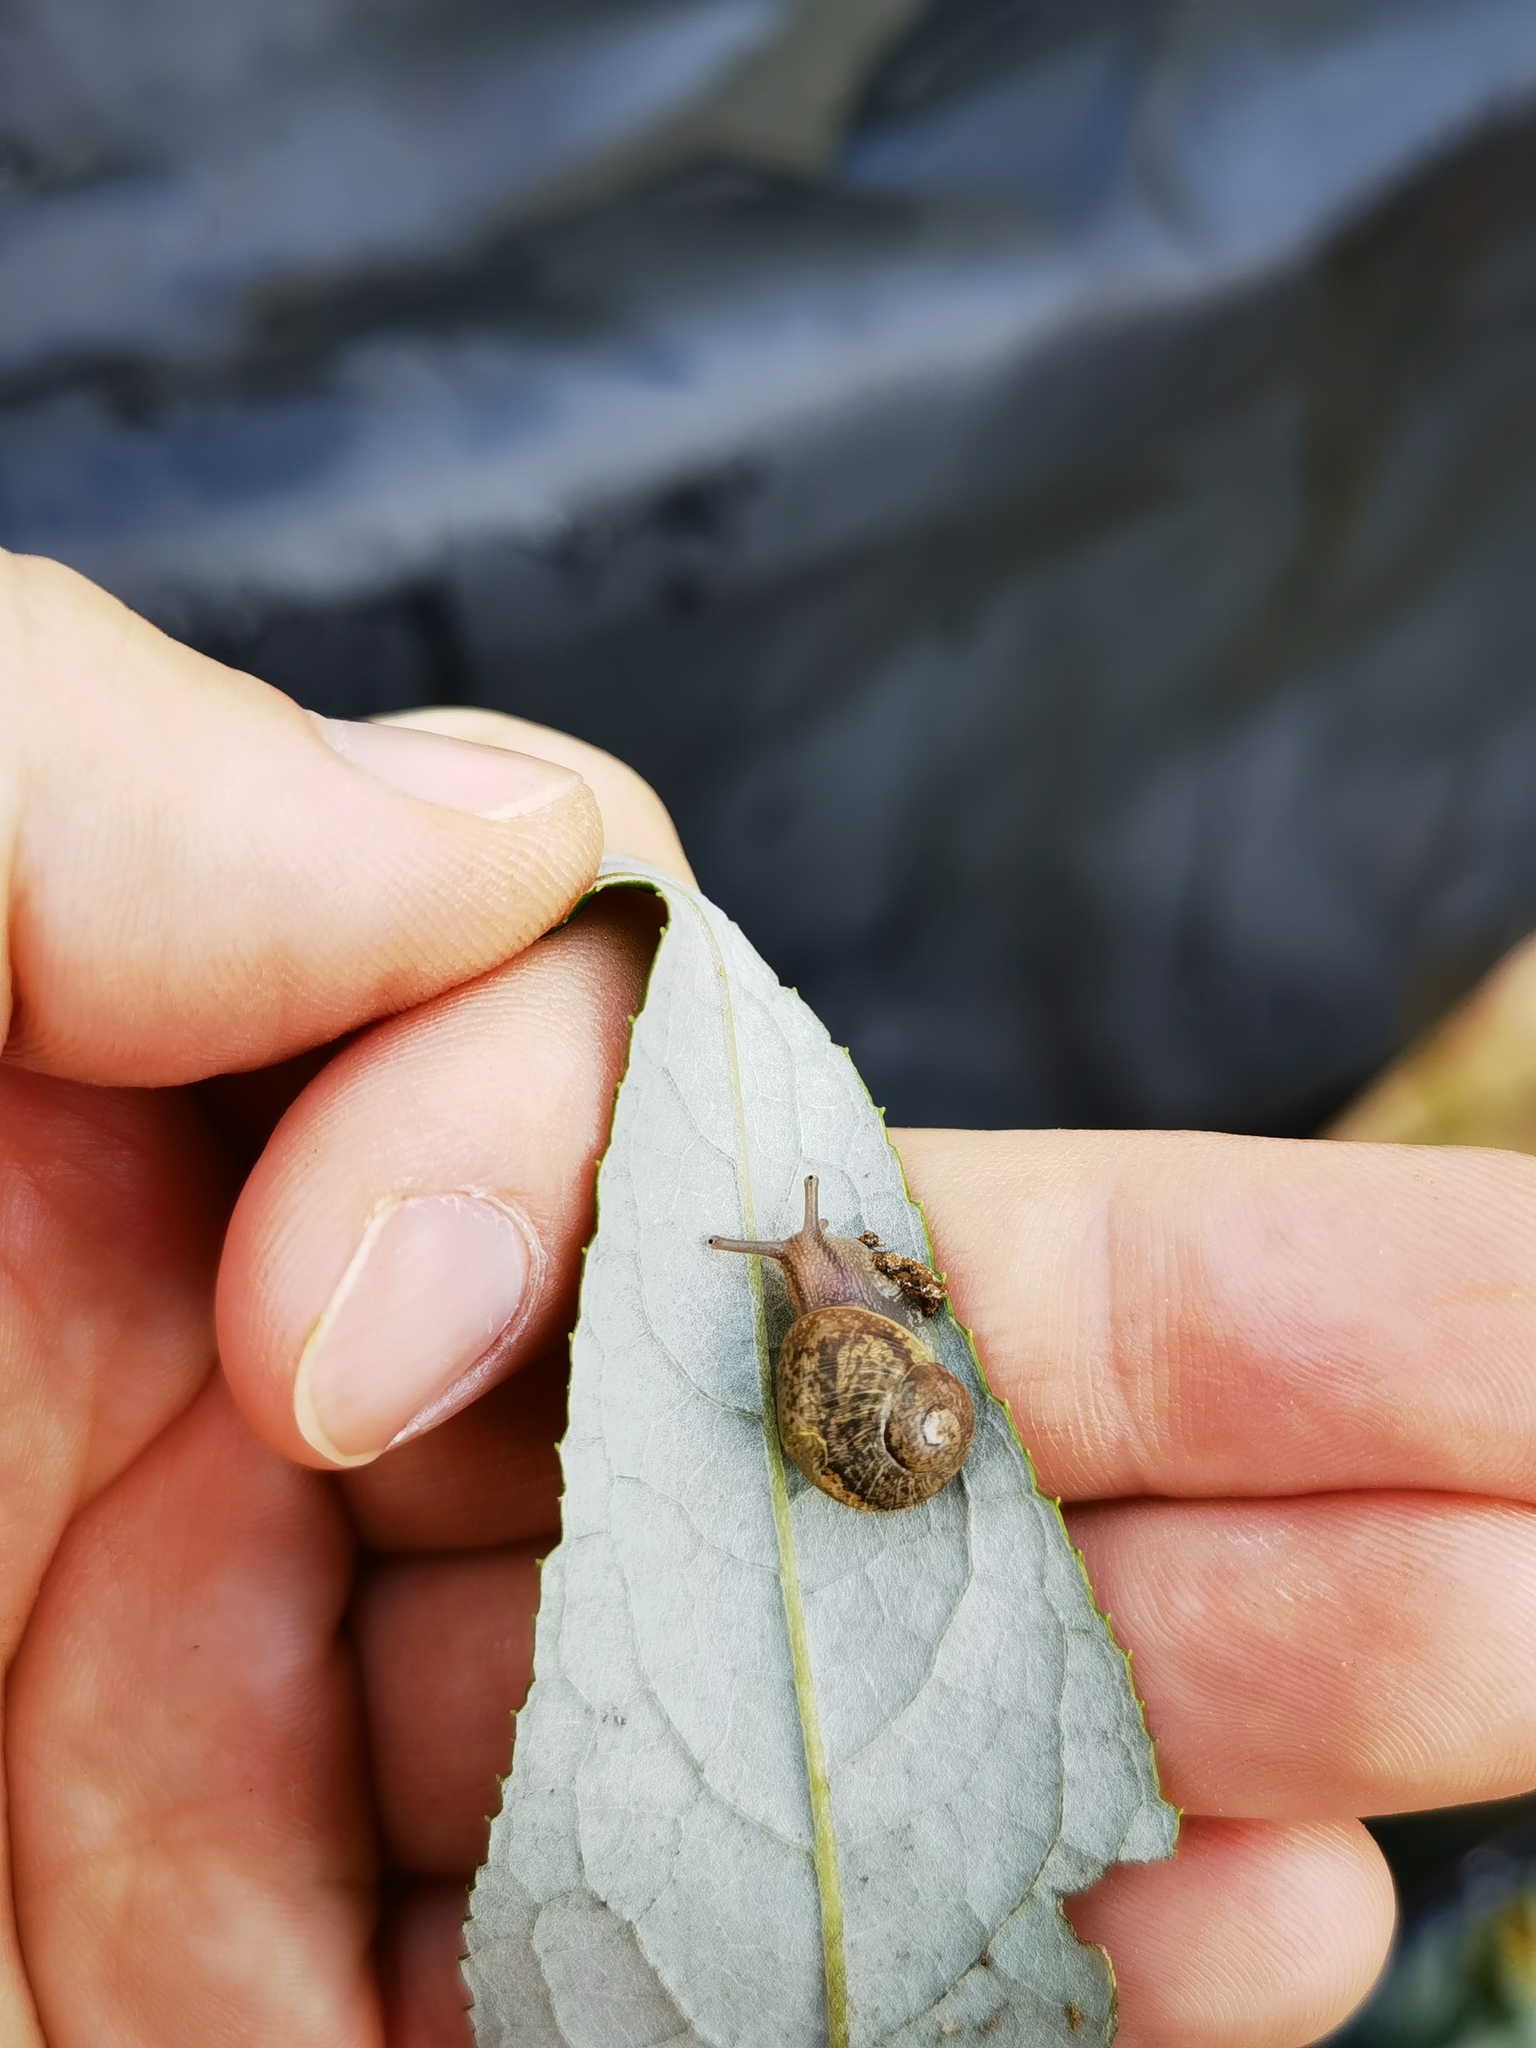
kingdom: Animalia
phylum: Mollusca
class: Gastropoda
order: Stylommatophora
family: Helicidae
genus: Cornu
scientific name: Cornu aspersum
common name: Brown garden snail
